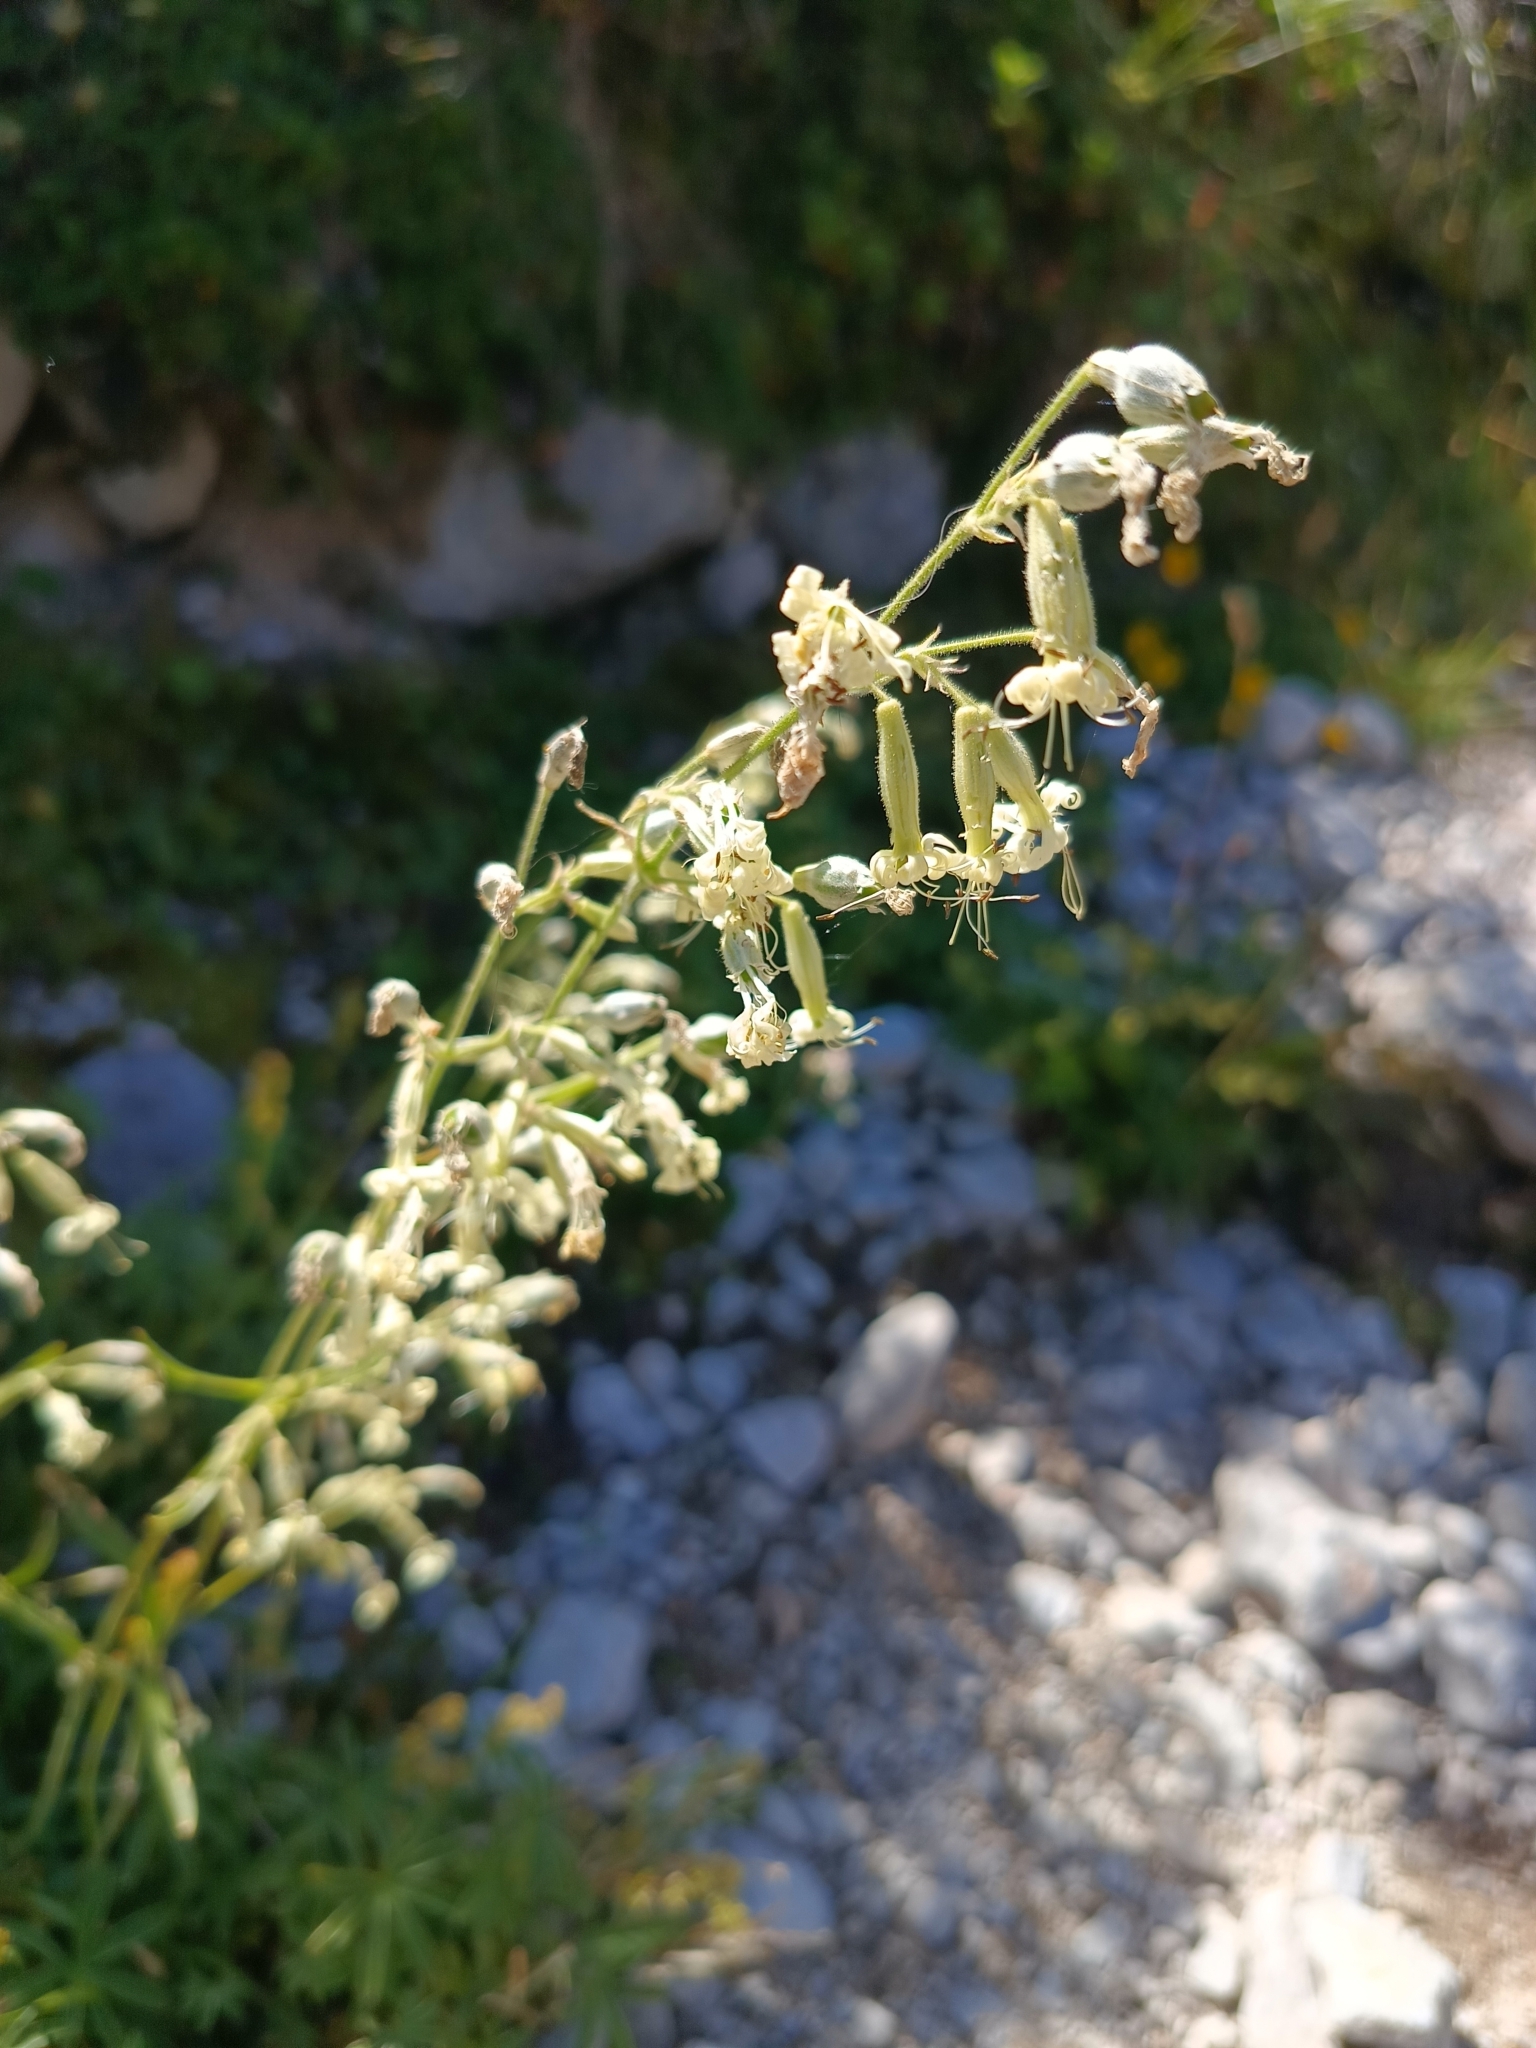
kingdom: Plantae
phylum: Tracheophyta
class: Magnoliopsida
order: Caryophyllales
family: Caryophyllaceae
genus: Silene
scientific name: Silene nutans
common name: Nottingham catchfly
